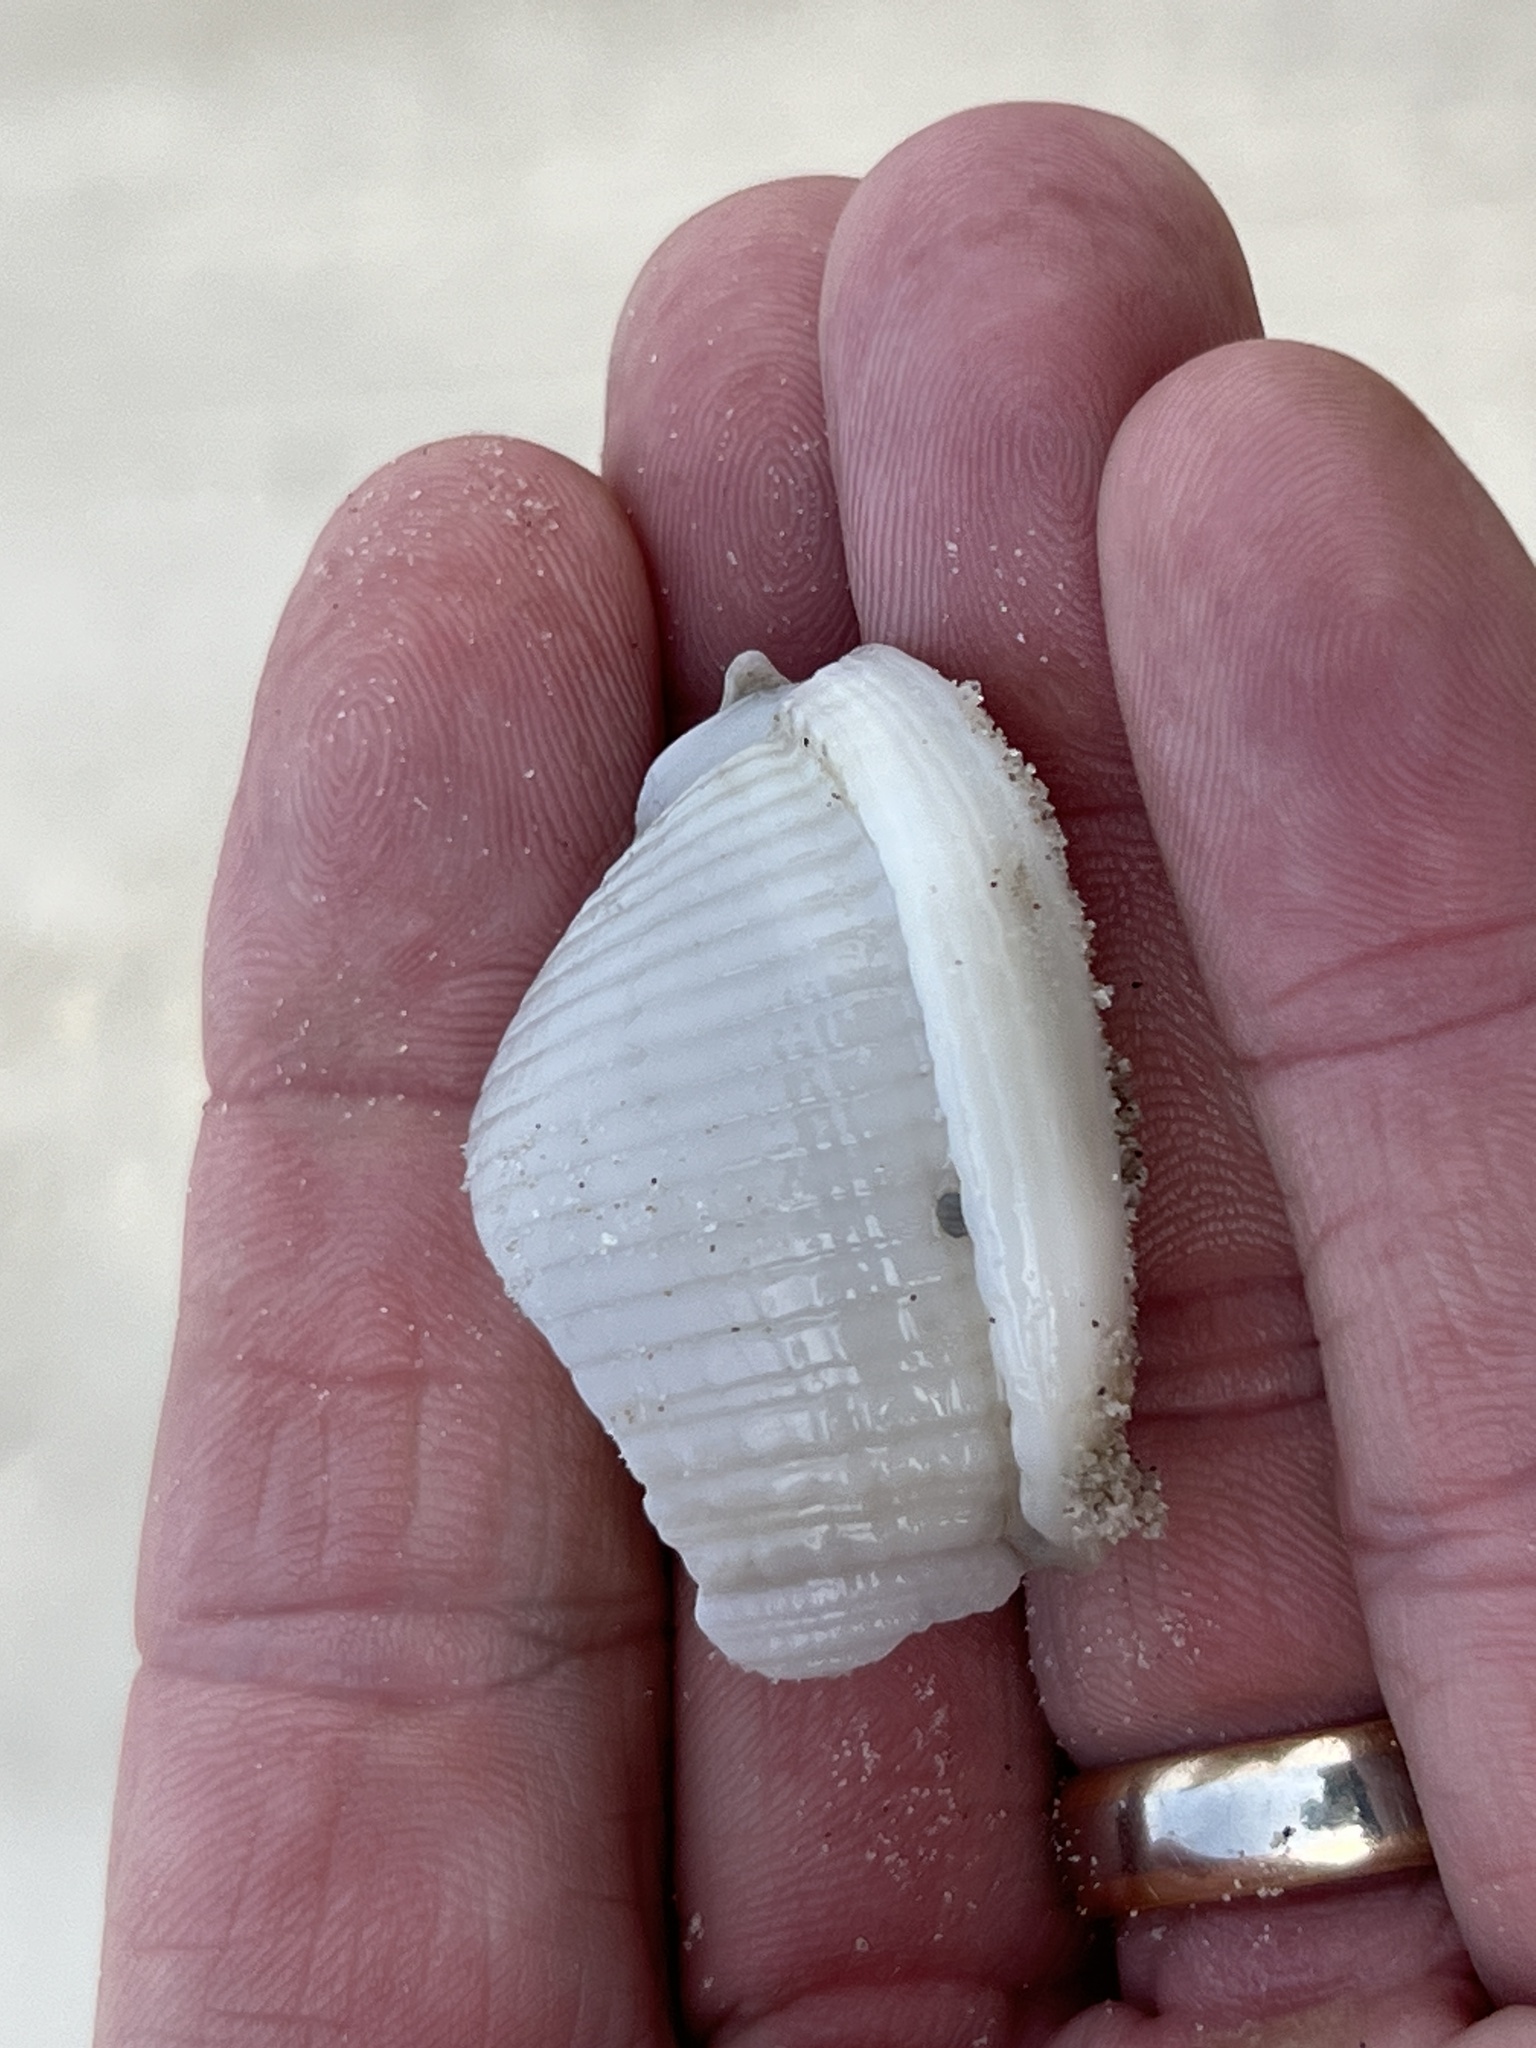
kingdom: Animalia
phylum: Mollusca
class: Gastropoda
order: Littorinimorpha
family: Cassidae
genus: Semicassis
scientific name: Semicassis granulata
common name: Scotch bonnet
